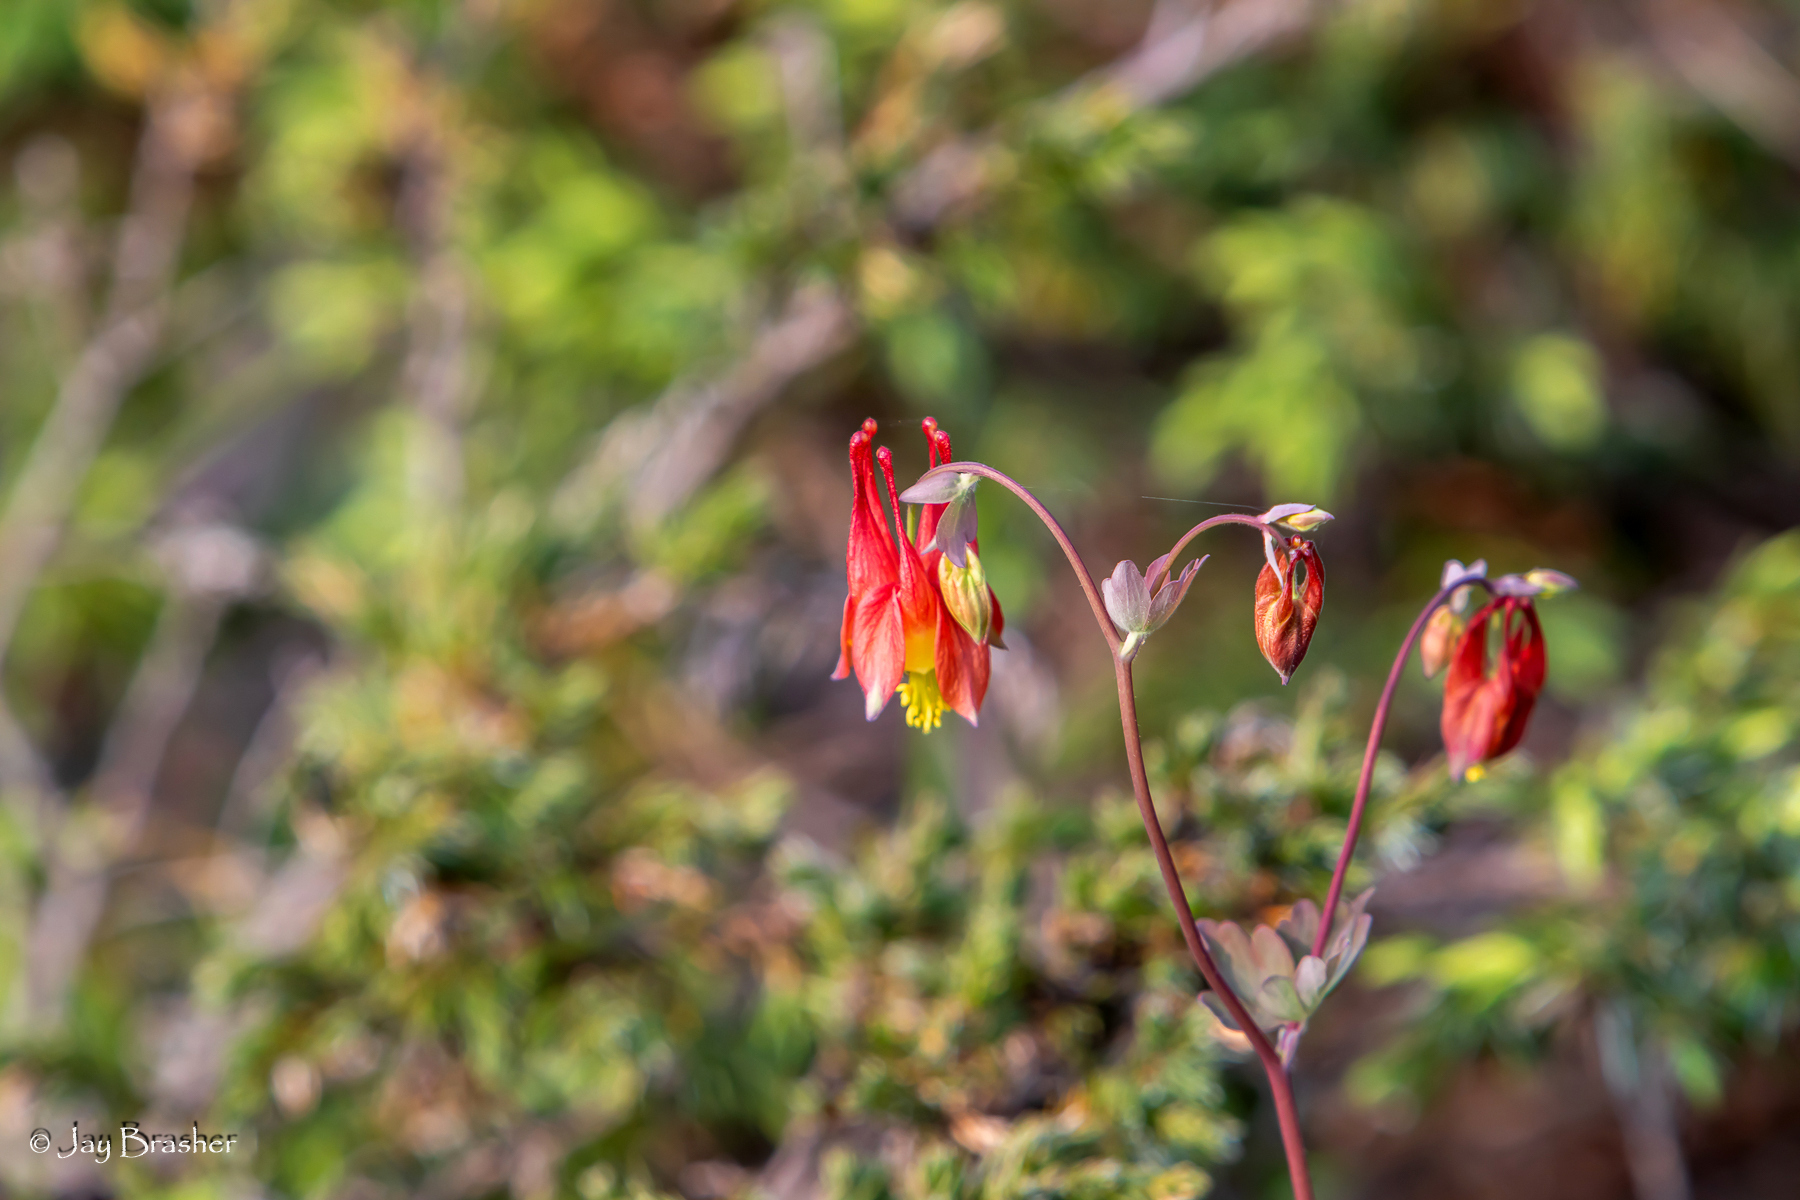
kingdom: Plantae
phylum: Tracheophyta
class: Magnoliopsida
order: Ranunculales
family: Ranunculaceae
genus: Aquilegia
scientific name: Aquilegia canadensis
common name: American columbine
